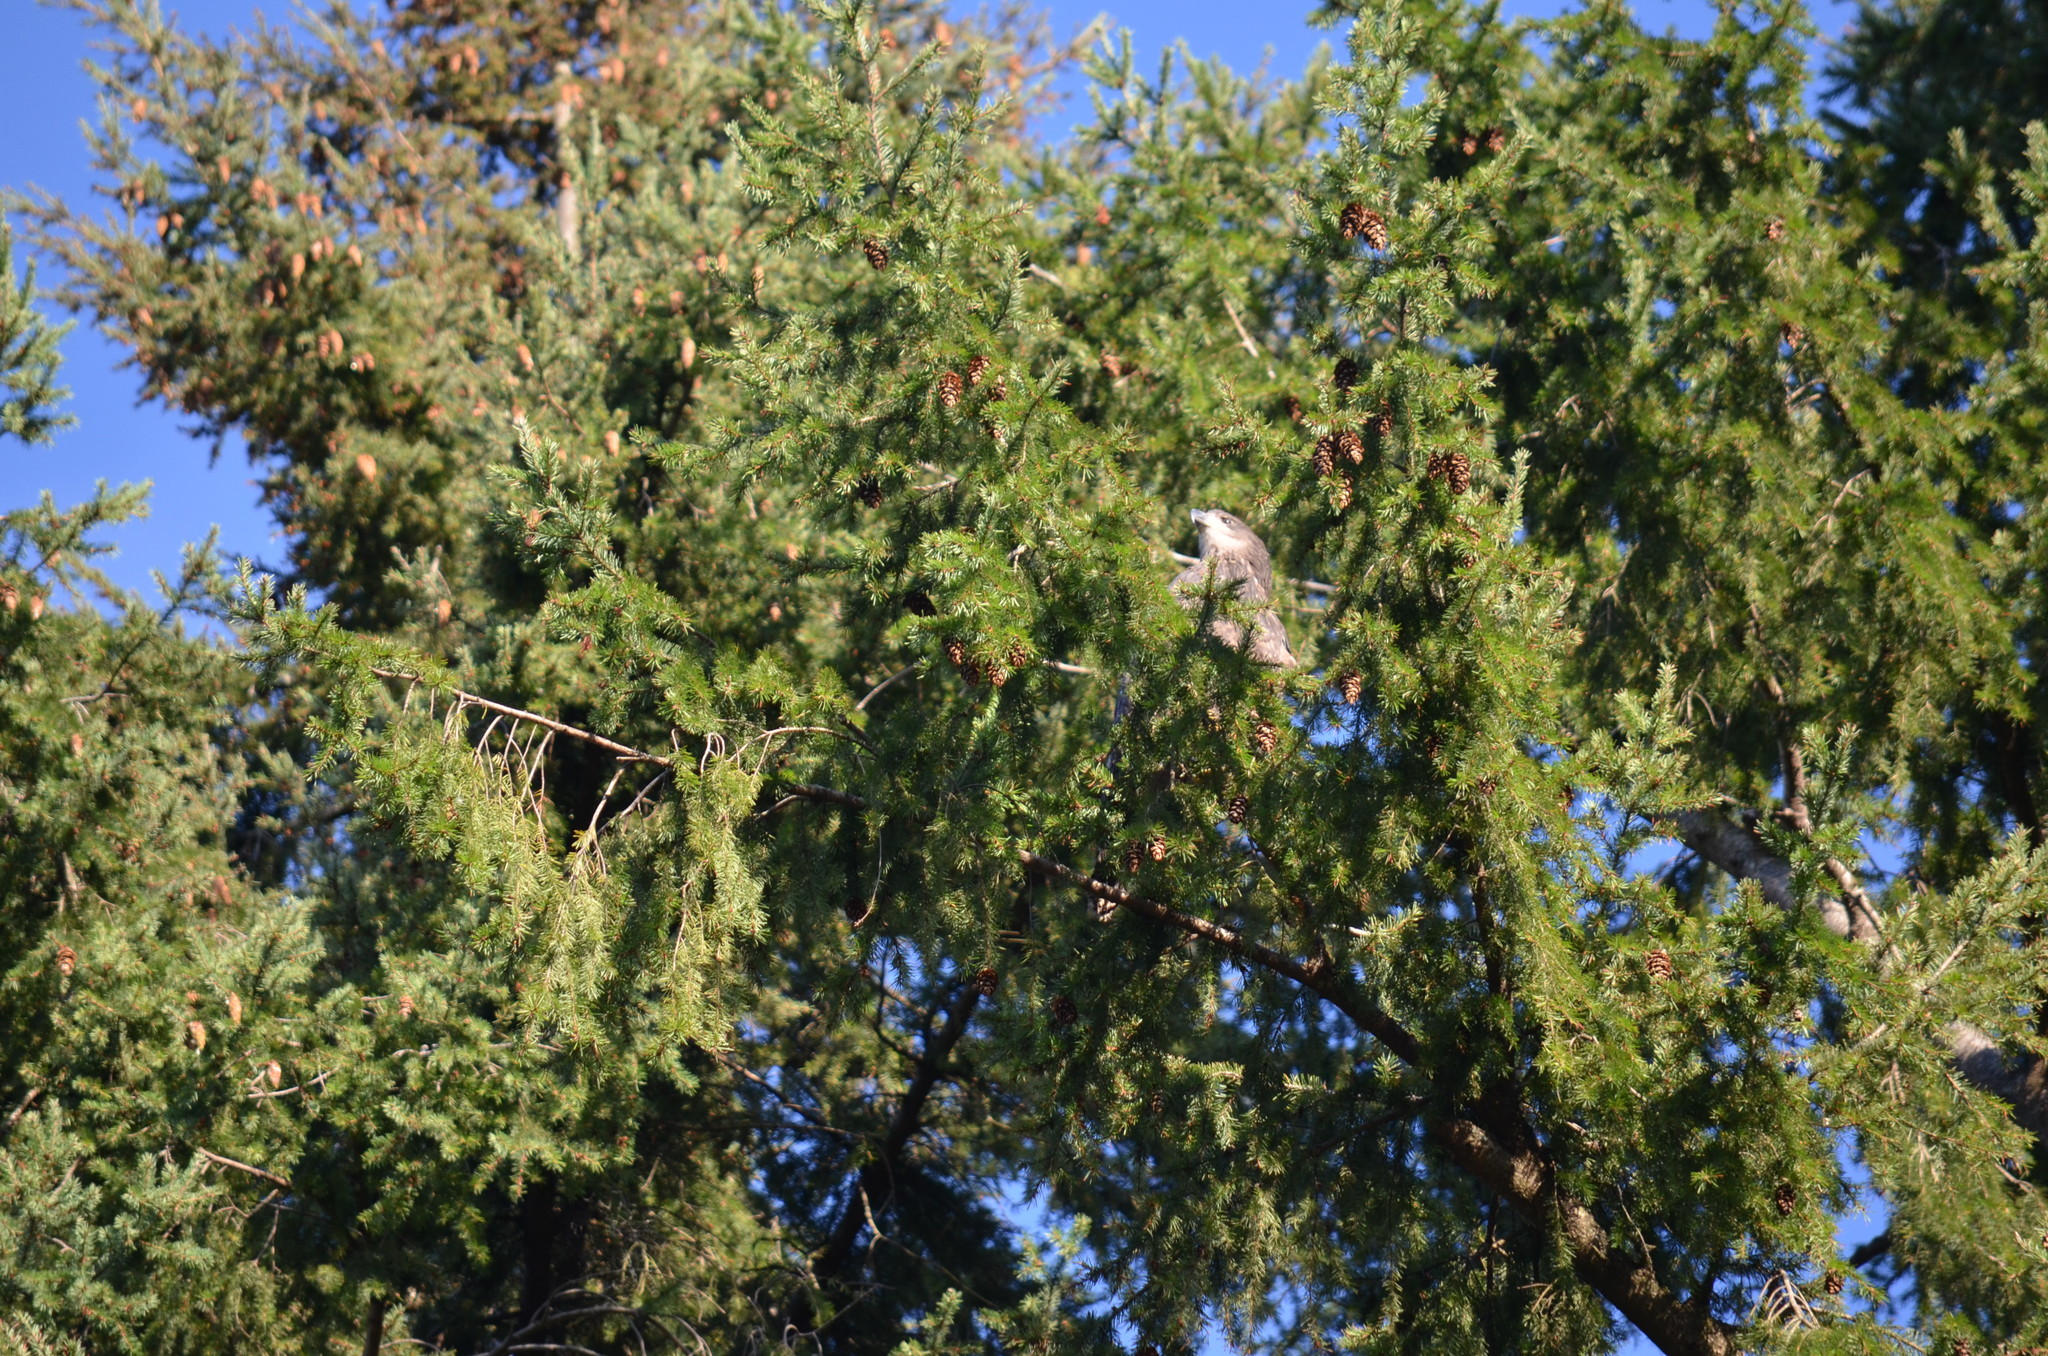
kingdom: Animalia
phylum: Chordata
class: Aves
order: Accipitriformes
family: Accipitridae
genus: Haliaeetus
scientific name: Haliaeetus leucocephalus
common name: Bald eagle
